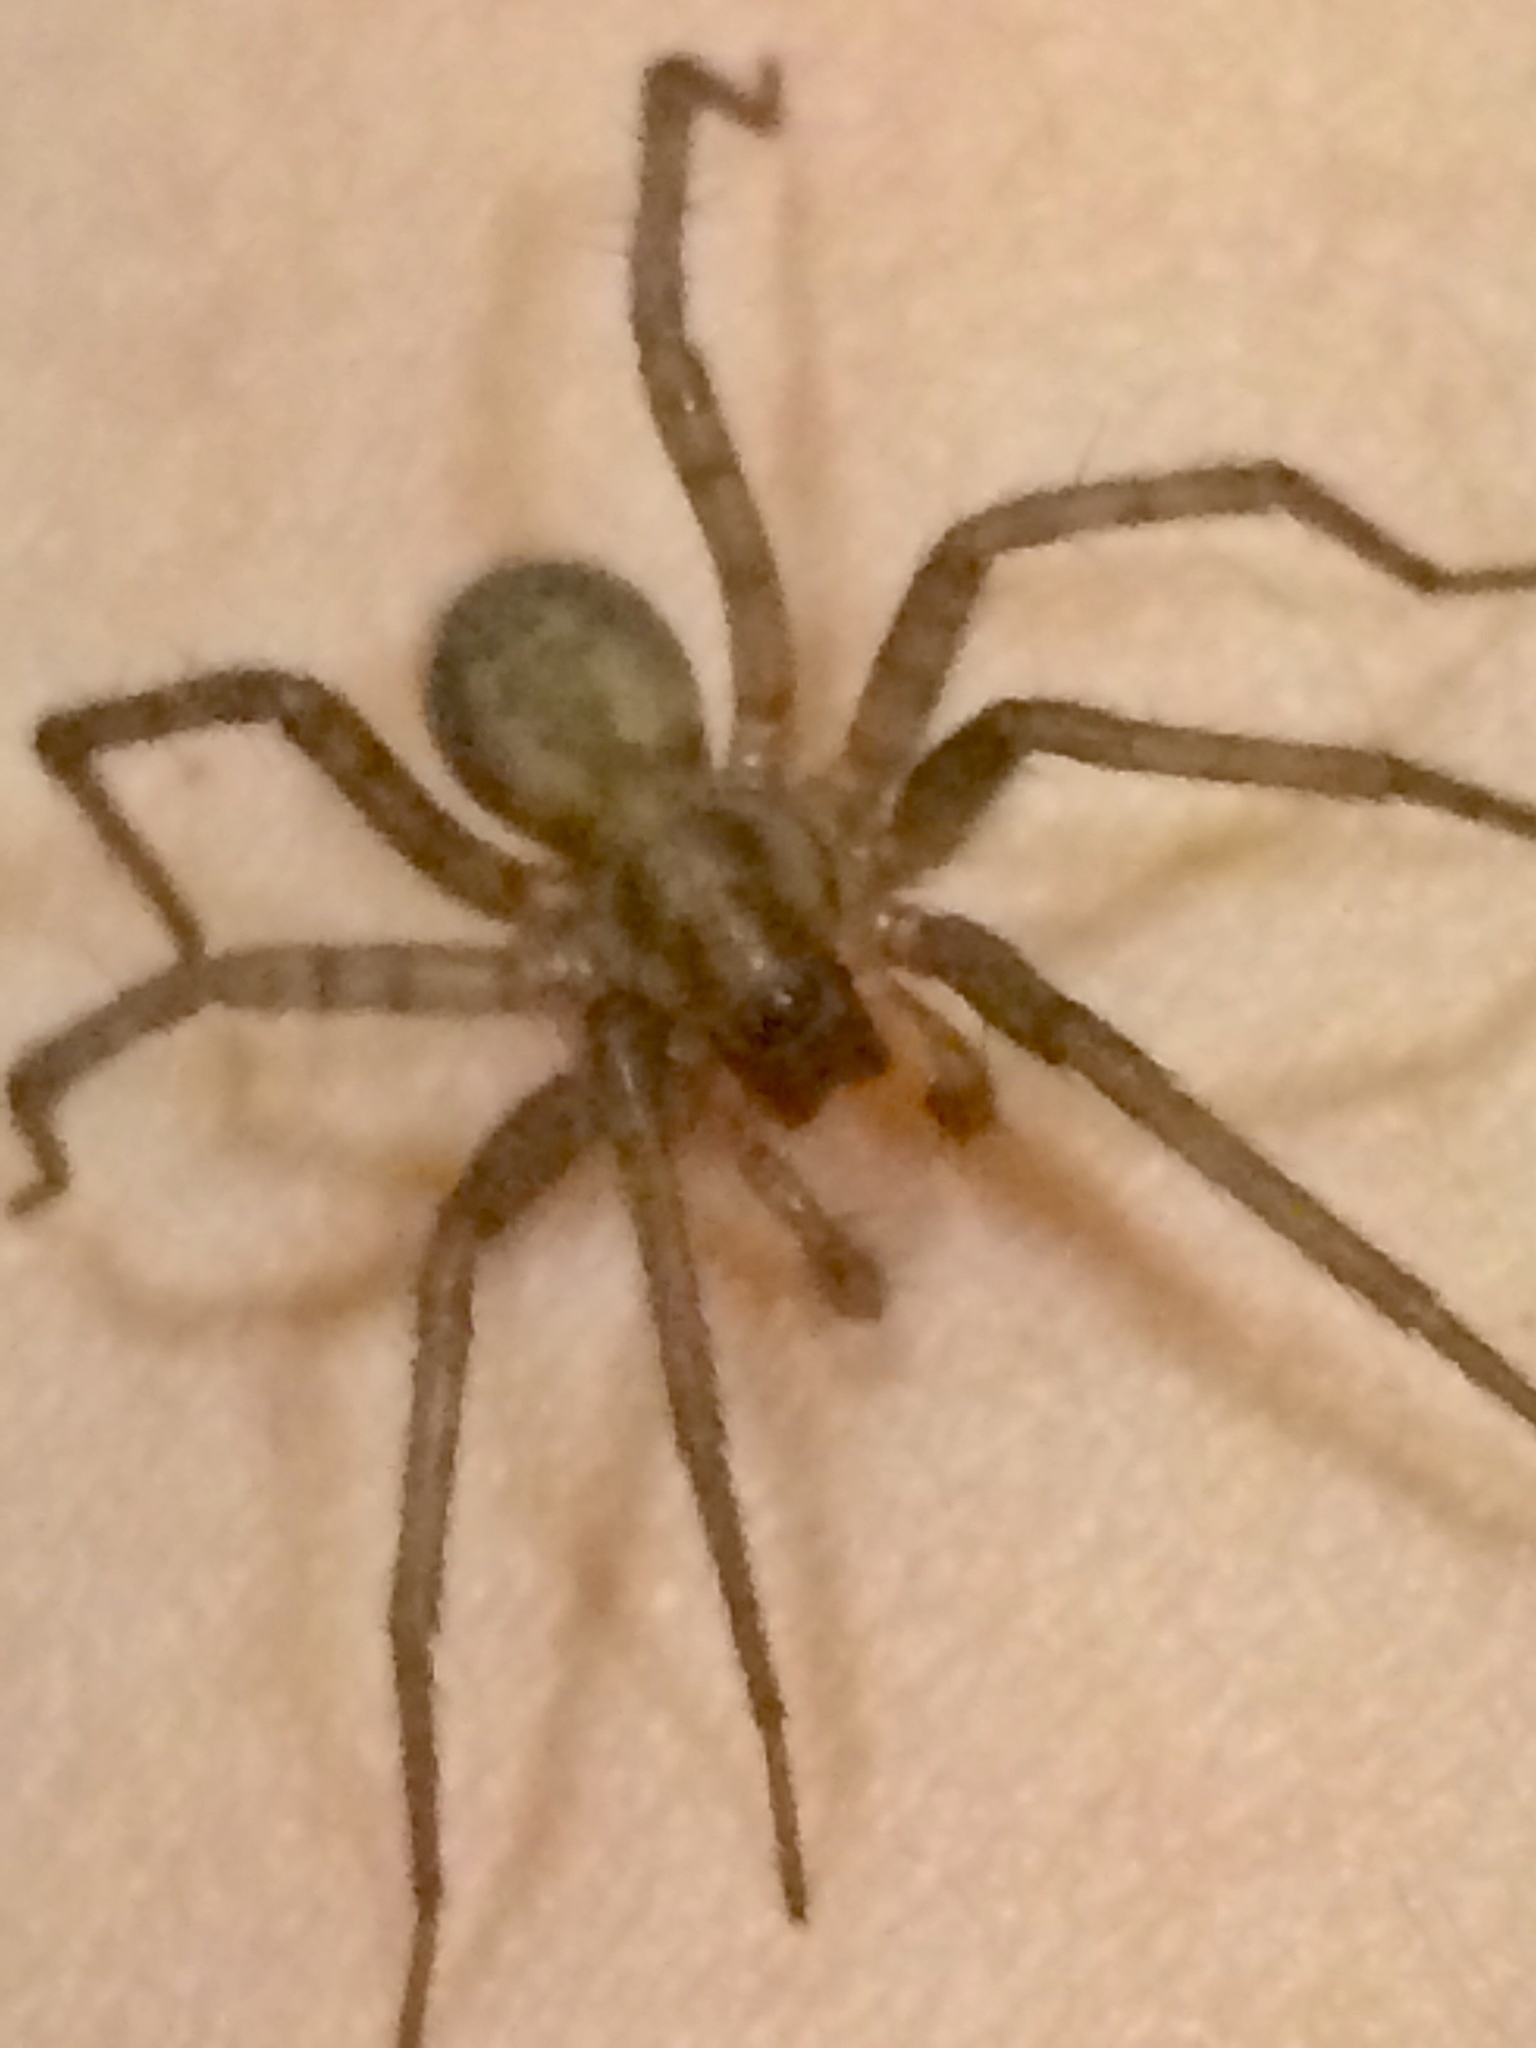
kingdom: Animalia
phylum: Arthropoda
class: Arachnida
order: Araneae
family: Agelenidae
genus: Tegenaria
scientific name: Tegenaria domestica
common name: Barn funnel weaver
